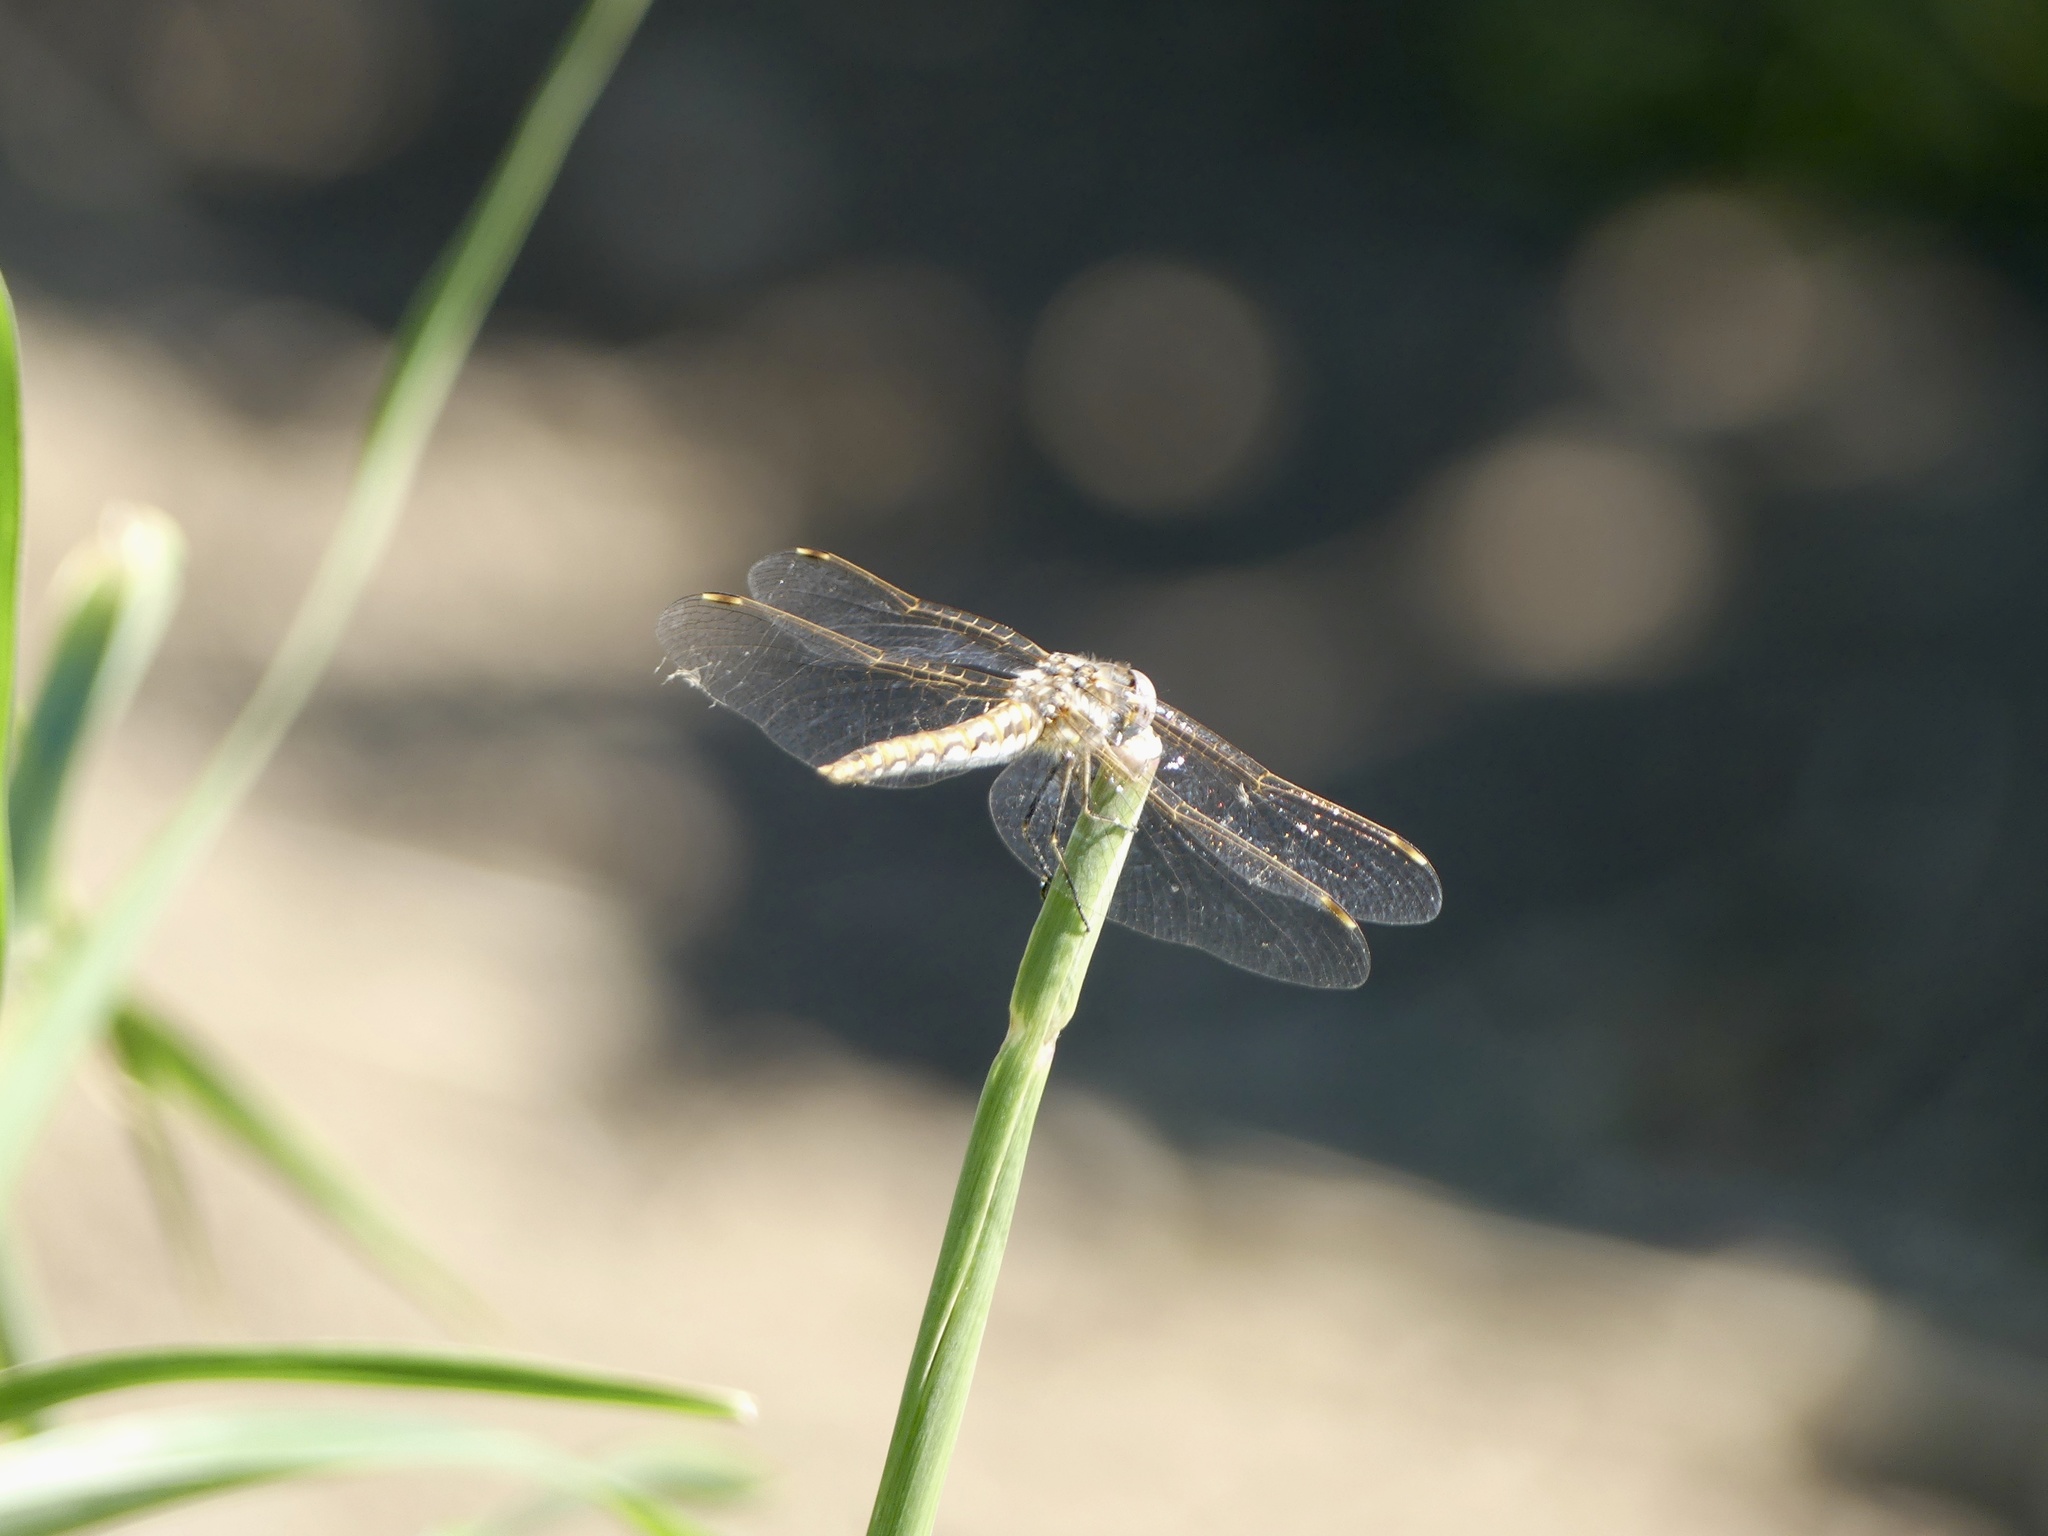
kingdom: Animalia
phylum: Arthropoda
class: Insecta
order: Odonata
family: Libellulidae
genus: Sympetrum
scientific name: Sympetrum corruptum
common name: Variegated meadowhawk
